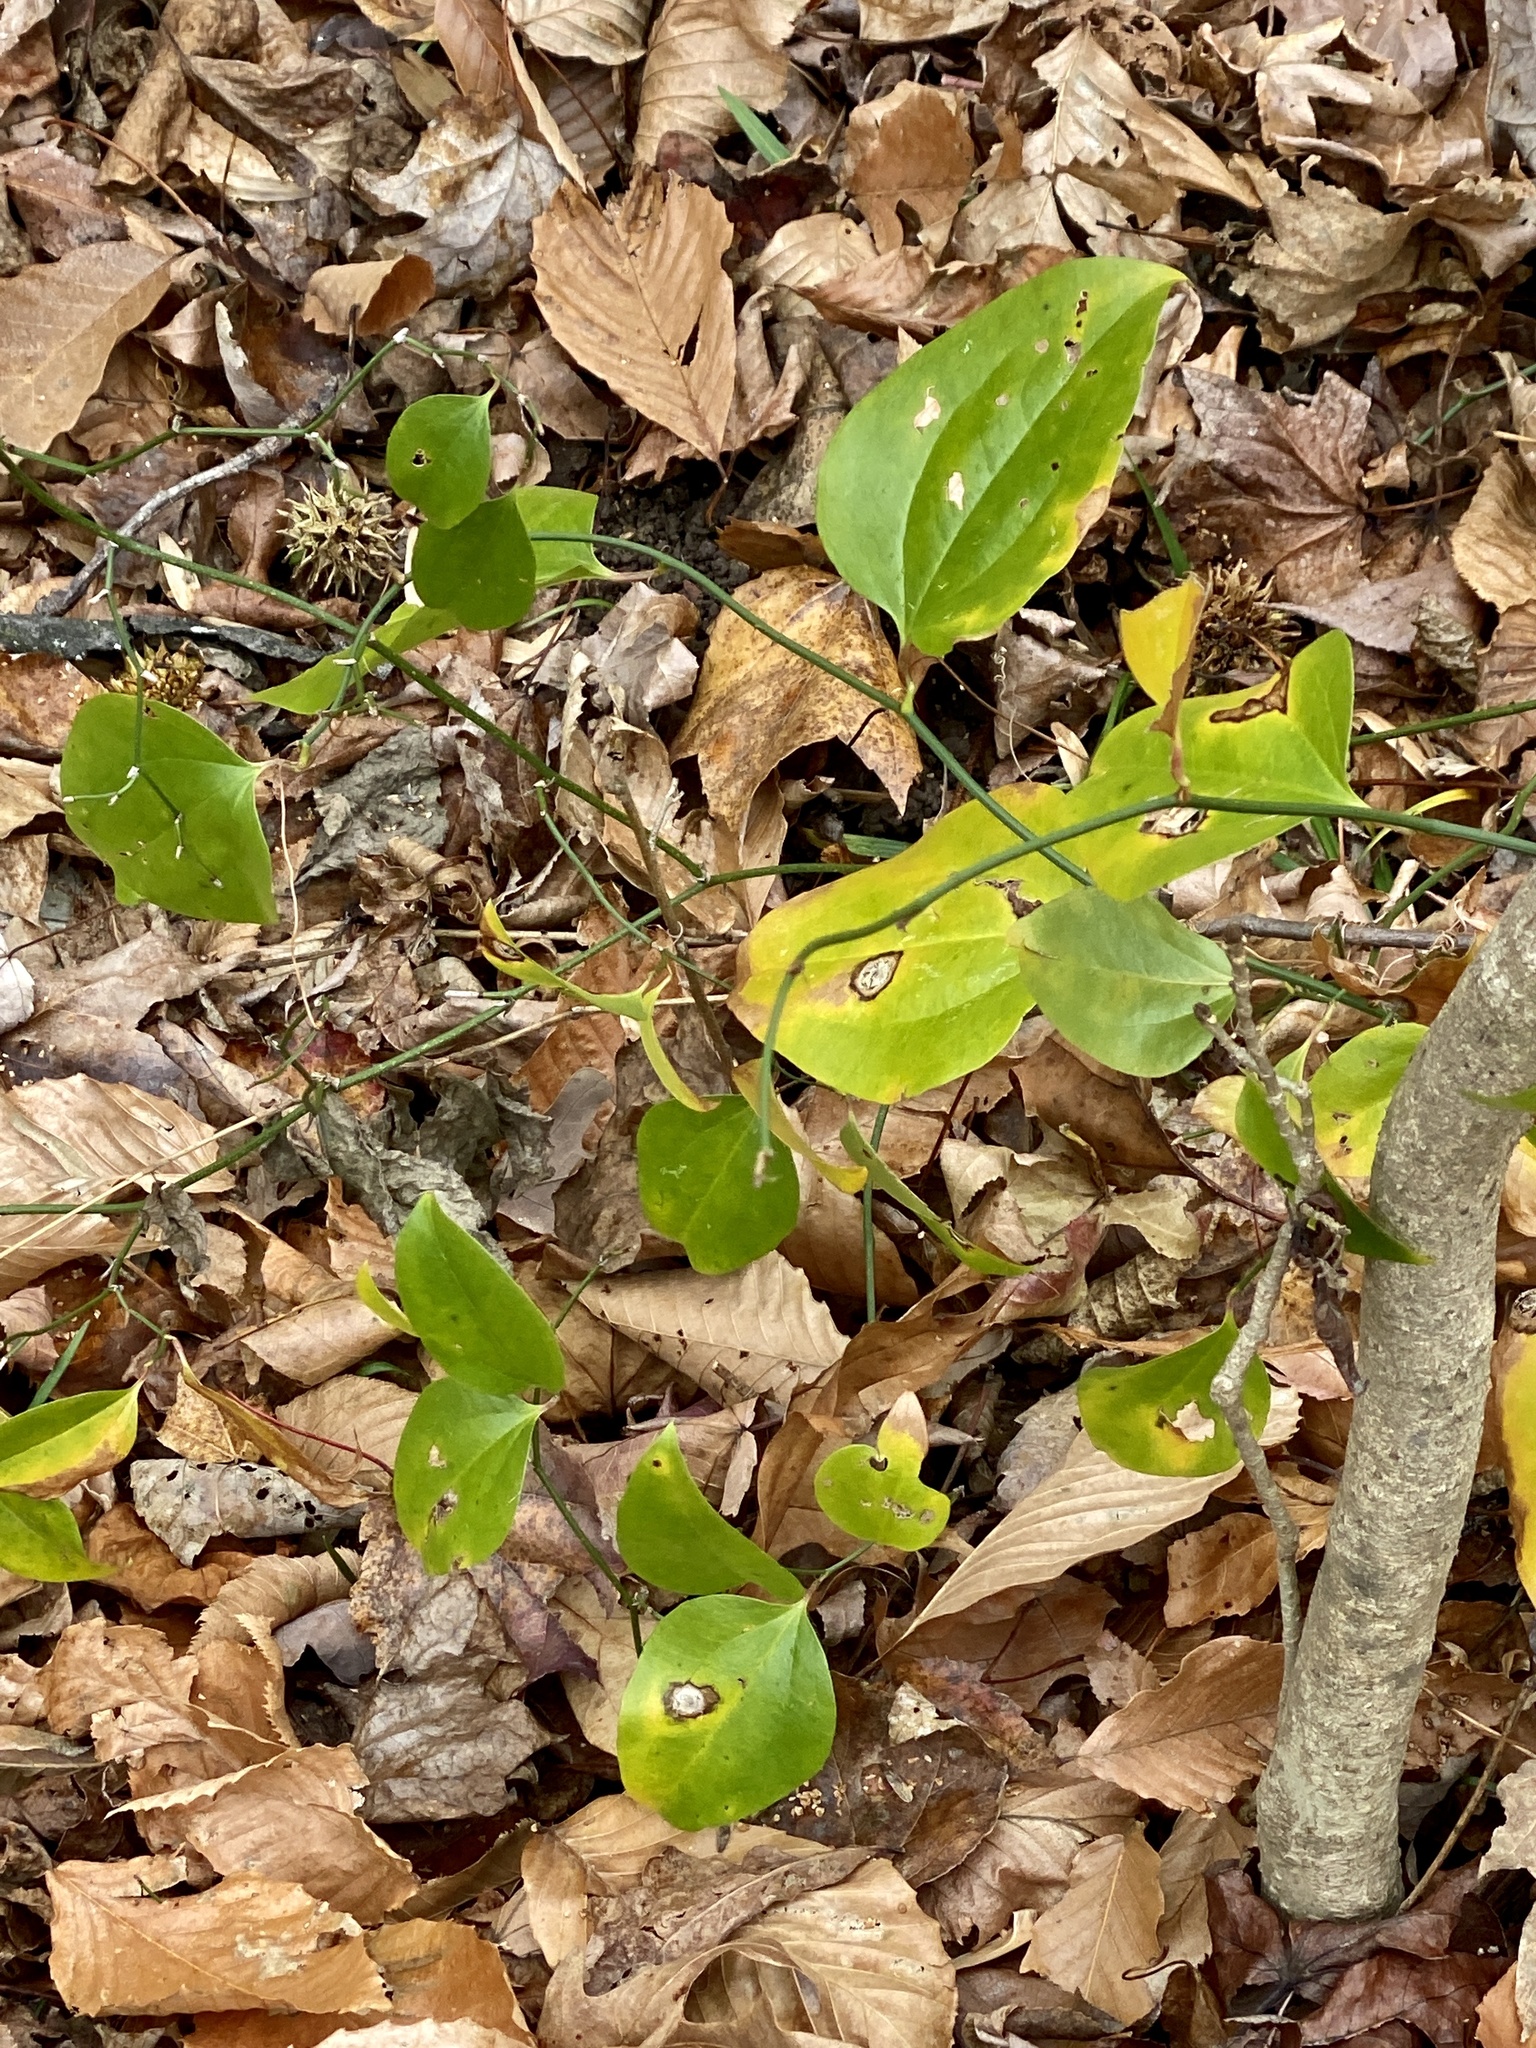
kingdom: Plantae
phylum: Tracheophyta
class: Liliopsida
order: Liliales
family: Smilacaceae
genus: Smilax
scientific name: Smilax rotundifolia
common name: Bullbriar
